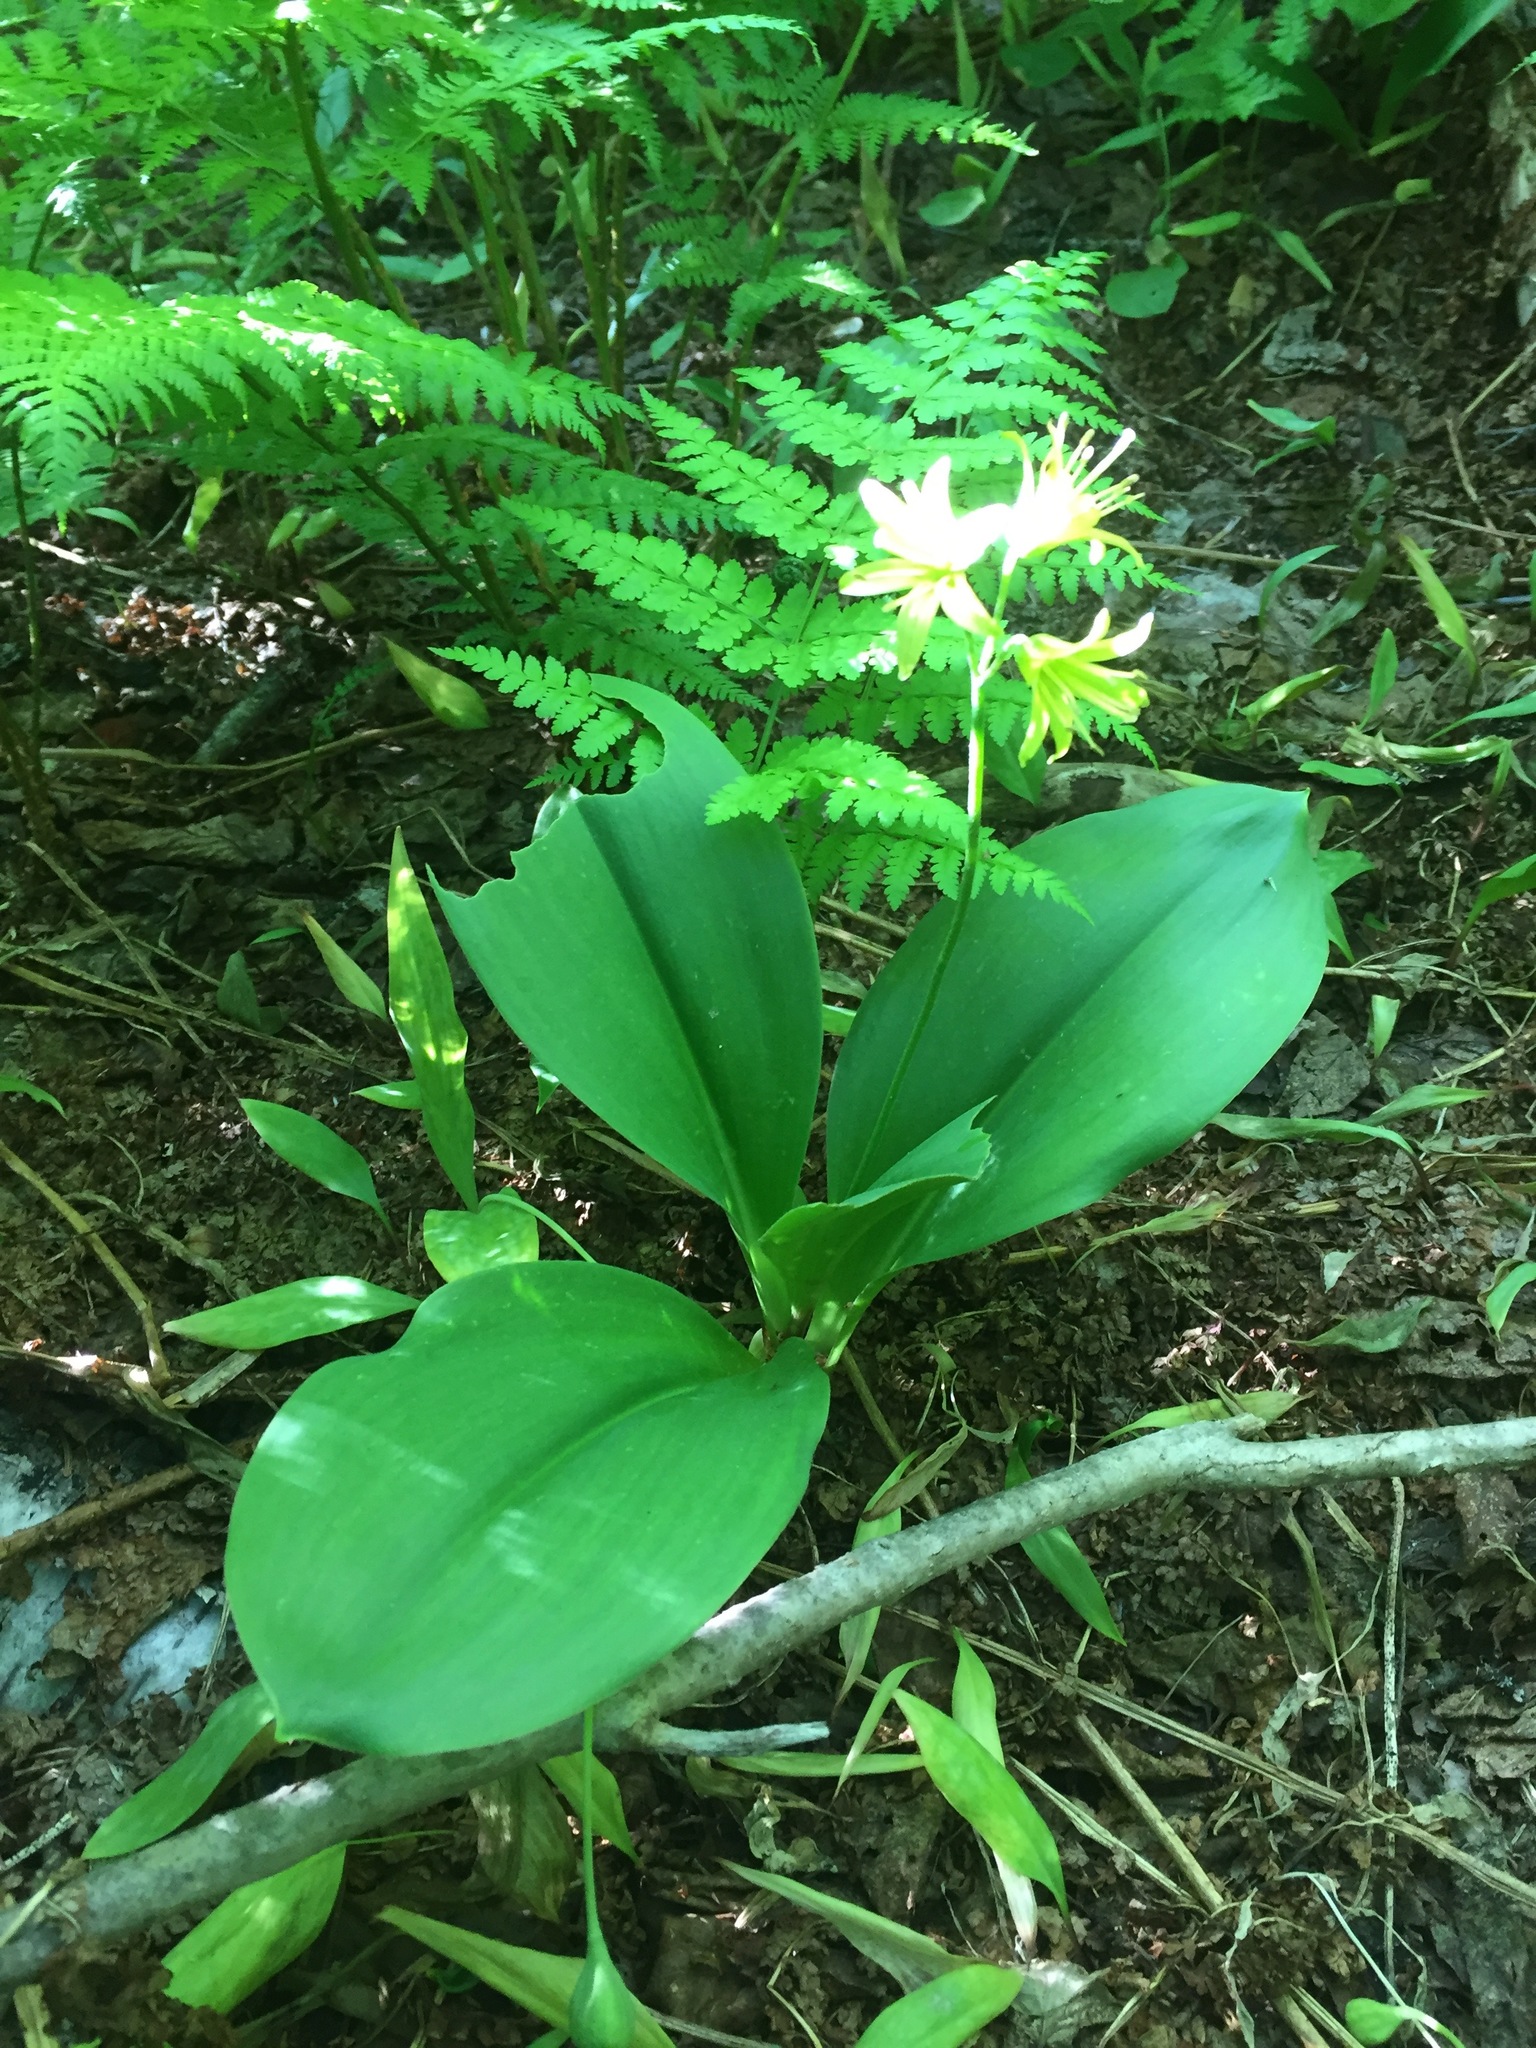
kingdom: Plantae
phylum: Tracheophyta
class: Liliopsida
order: Liliales
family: Liliaceae
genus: Clintonia
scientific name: Clintonia borealis
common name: Yellow clintonia
